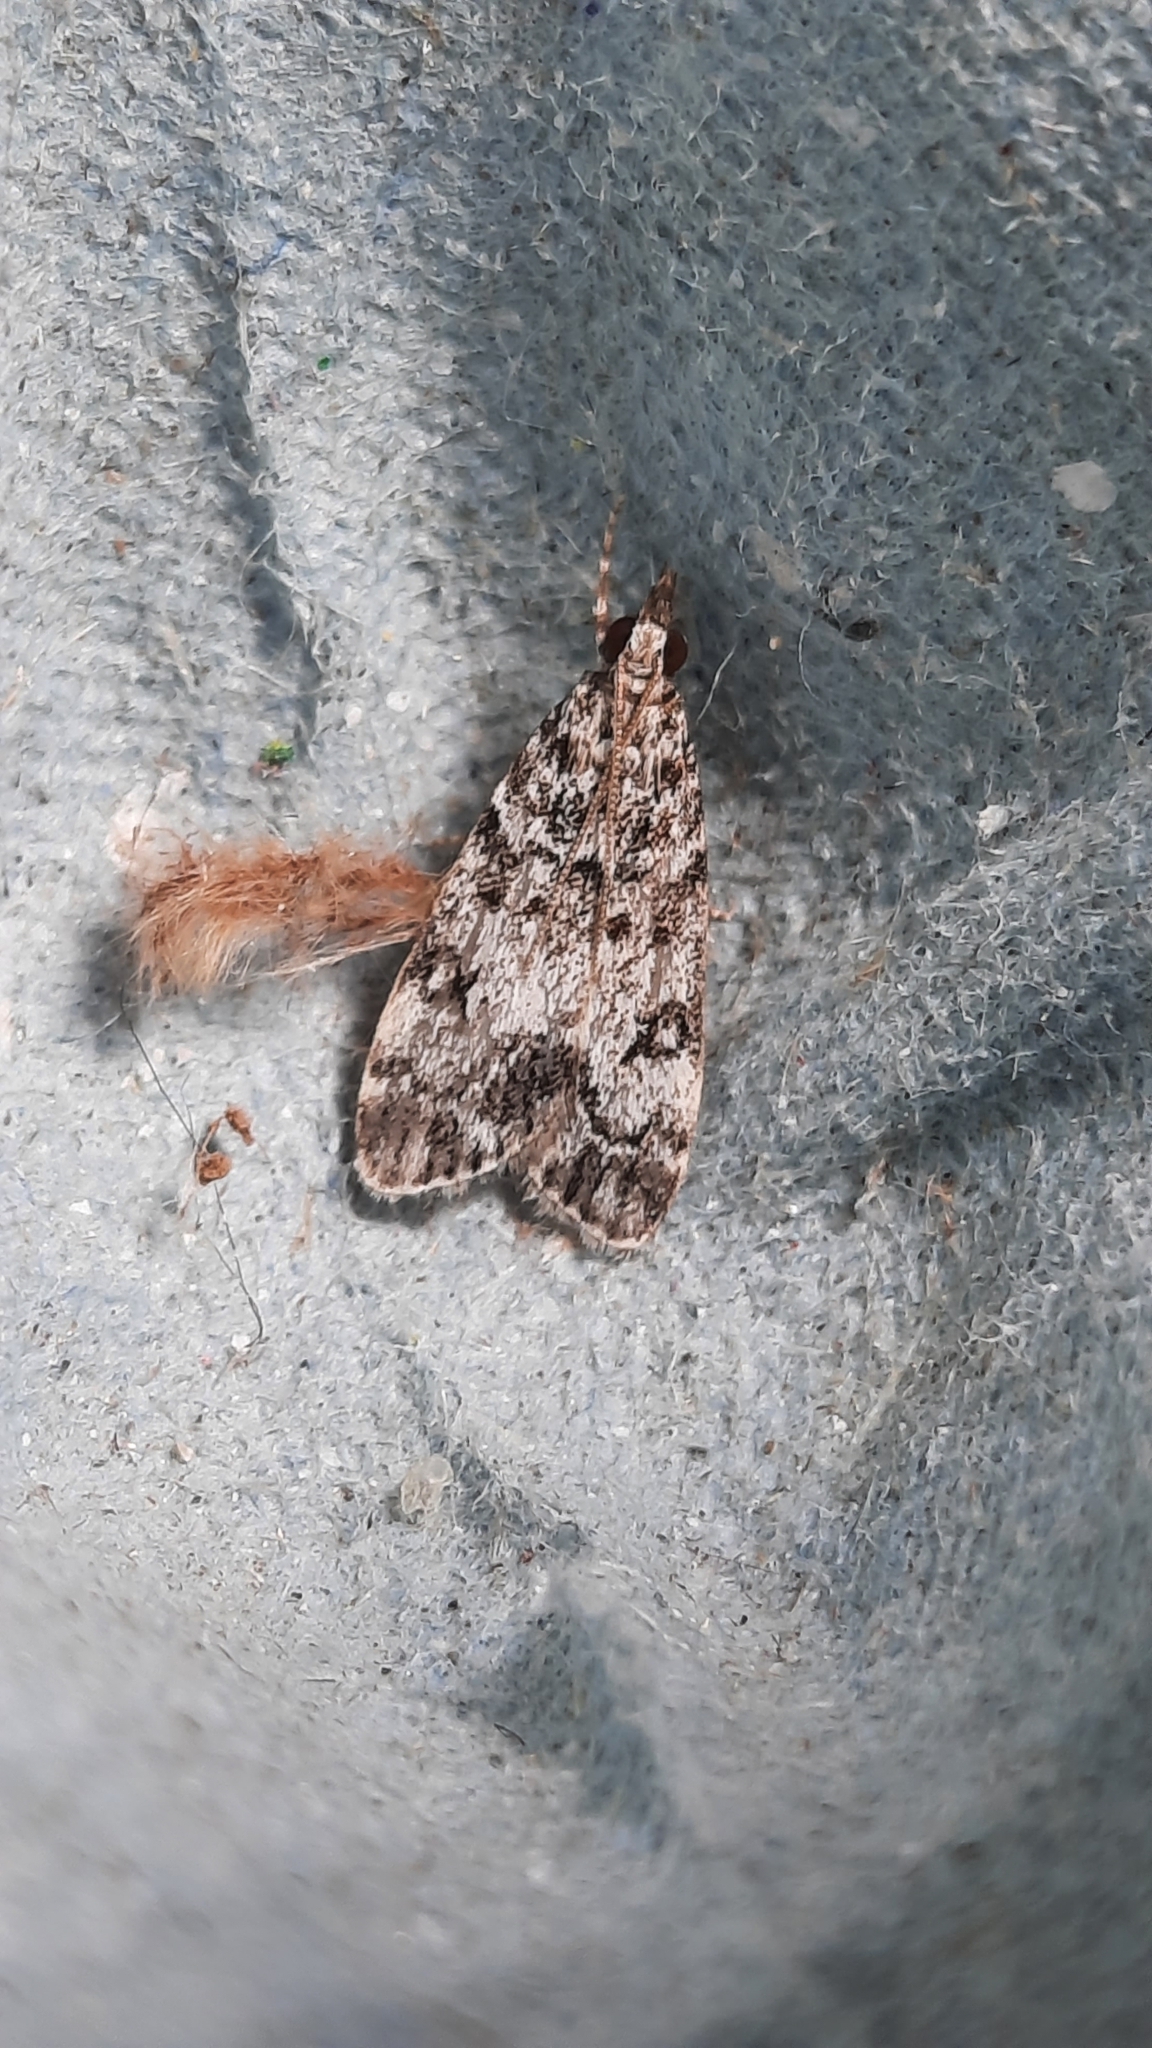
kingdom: Animalia
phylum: Arthropoda
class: Insecta
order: Lepidoptera
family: Crambidae
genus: Eudonia
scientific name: Eudonia lacustrata
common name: Little grey
